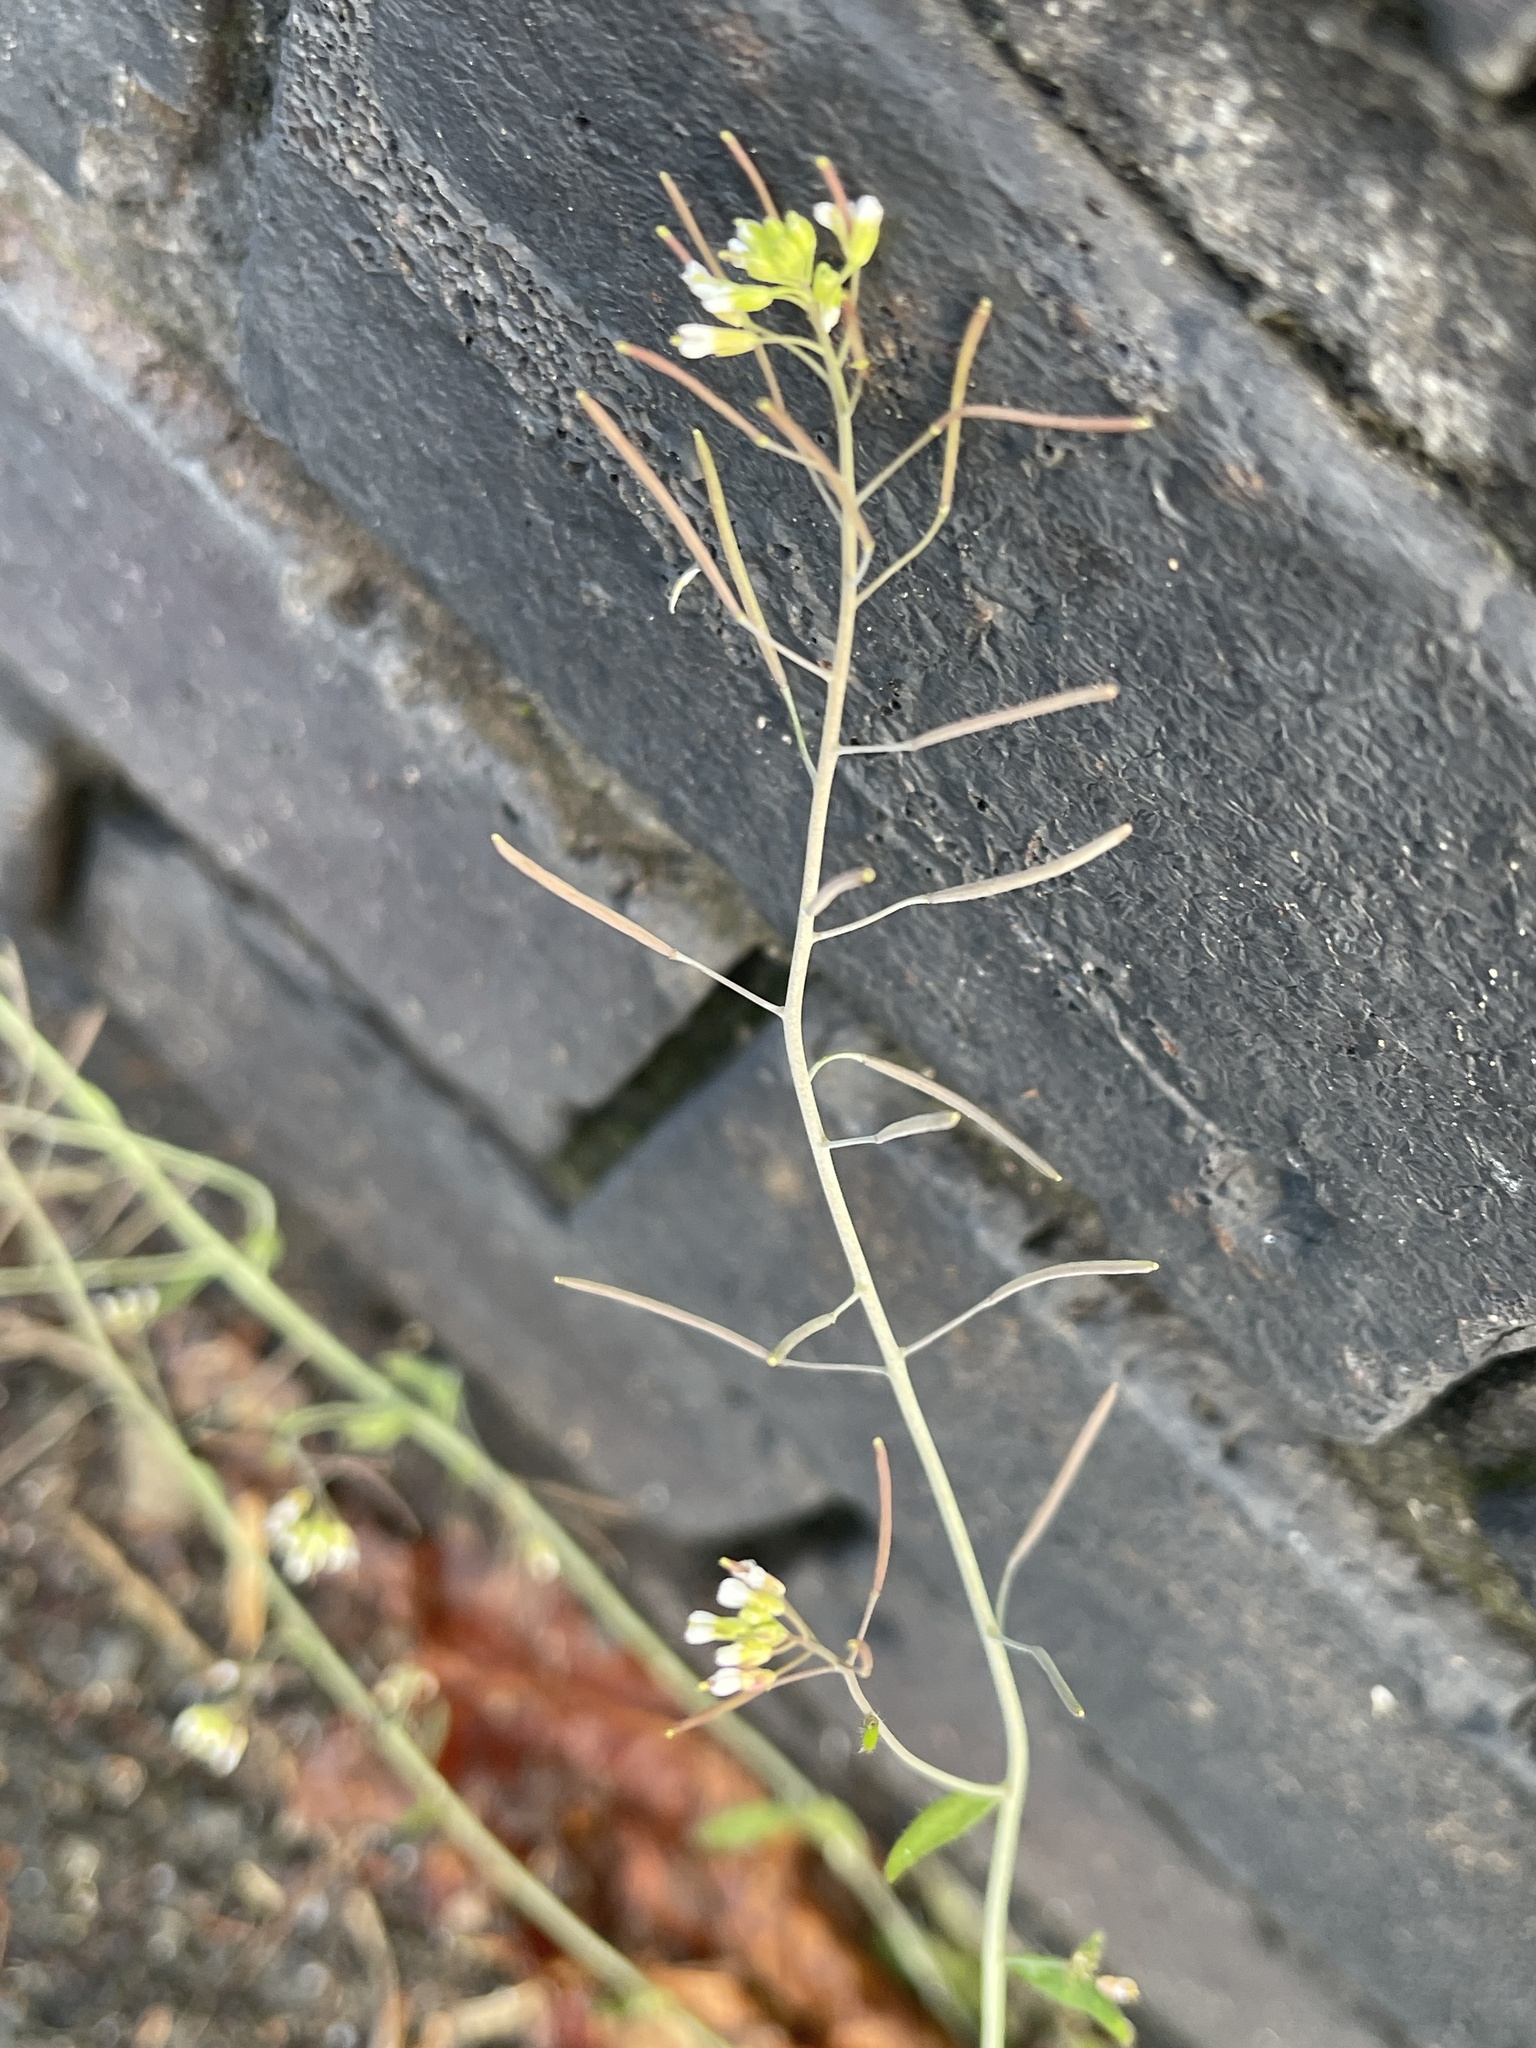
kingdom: Plantae
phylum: Tracheophyta
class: Magnoliopsida
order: Brassicales
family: Brassicaceae
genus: Arabidopsis
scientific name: Arabidopsis thaliana
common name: Thale cress
